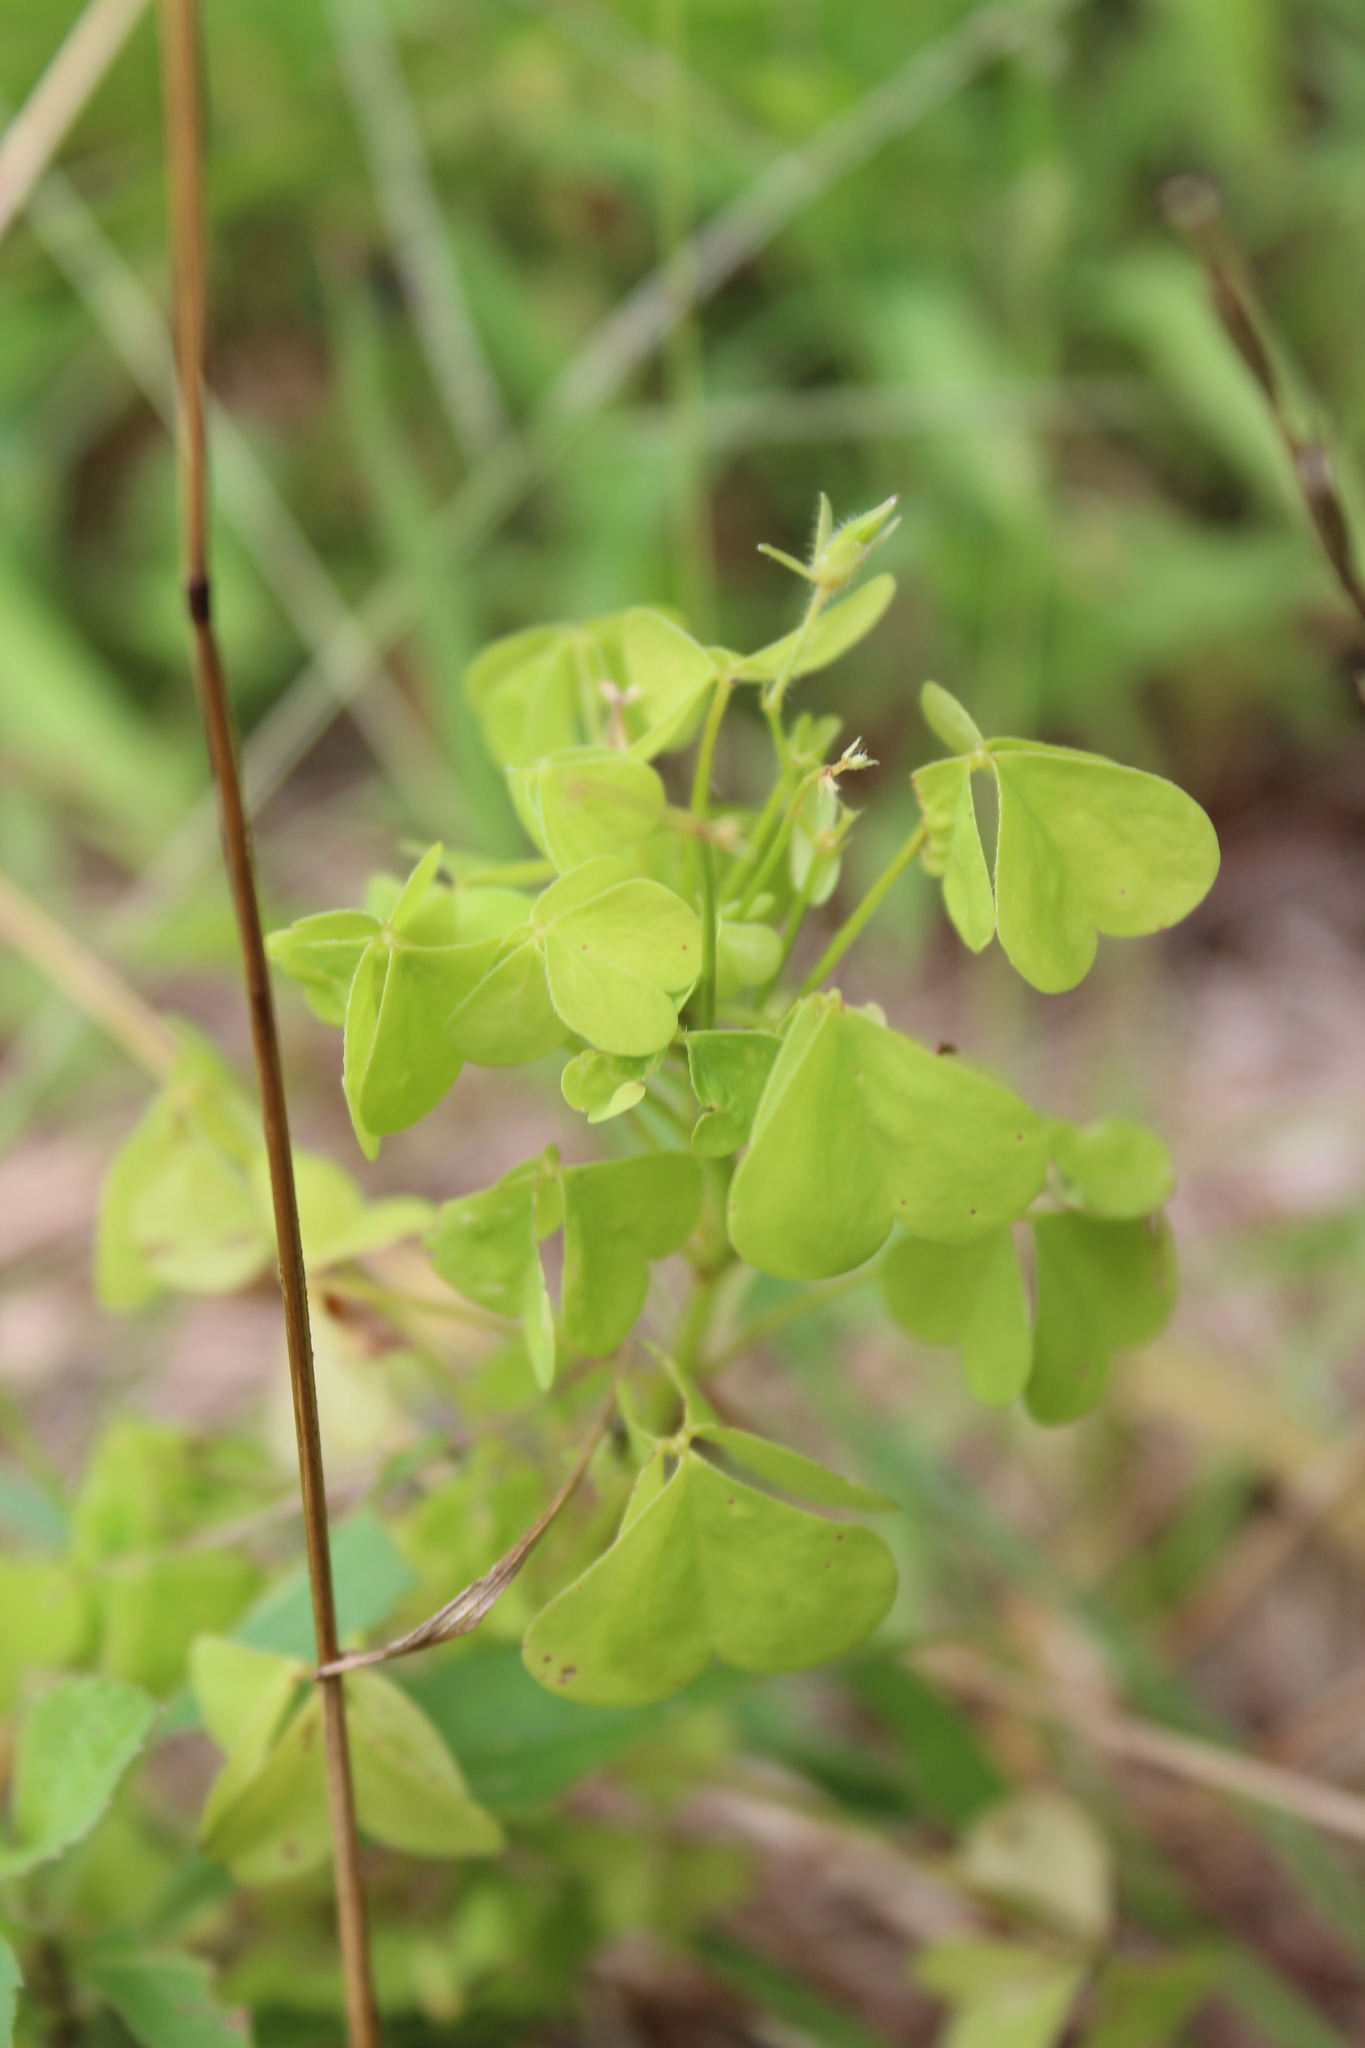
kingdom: Plantae
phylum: Tracheophyta
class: Magnoliopsida
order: Oxalidales
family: Oxalidaceae
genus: Oxalis
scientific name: Oxalis stricta
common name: Upright yellow-sorrel
